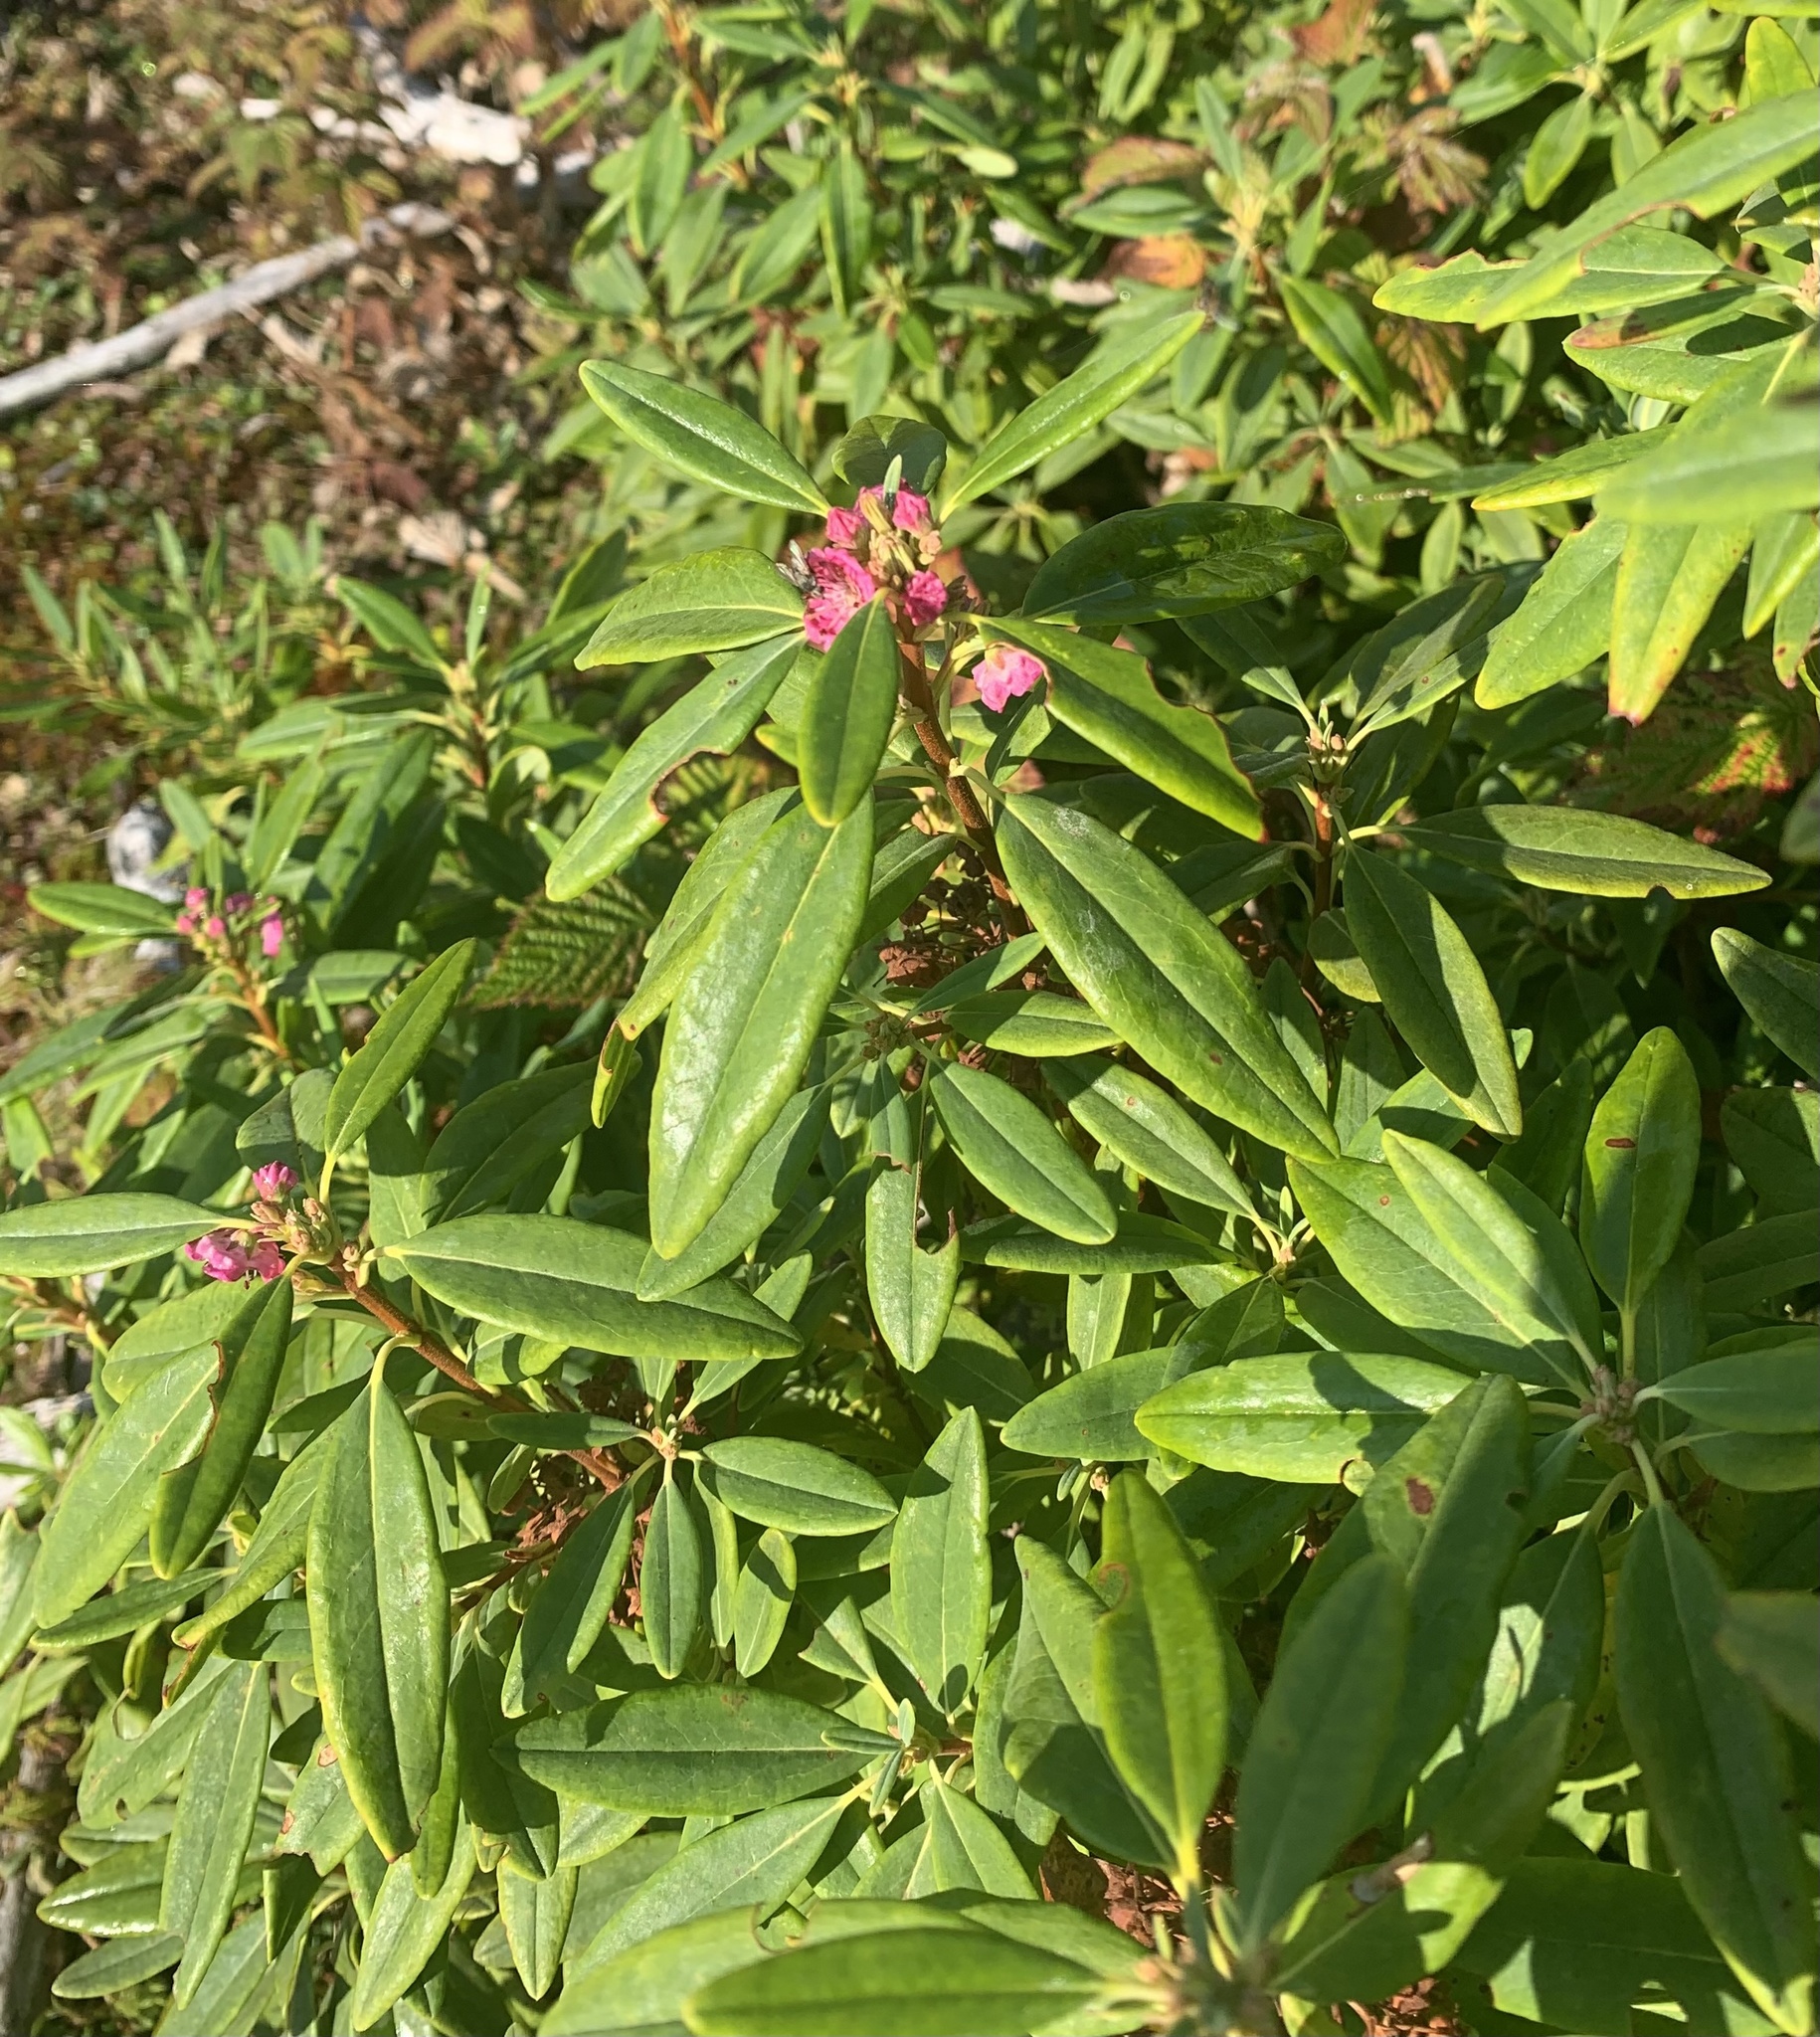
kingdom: Plantae
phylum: Tracheophyta
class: Magnoliopsida
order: Ericales
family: Ericaceae
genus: Kalmia
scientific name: Kalmia angustifolia
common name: Sheep-laurel
